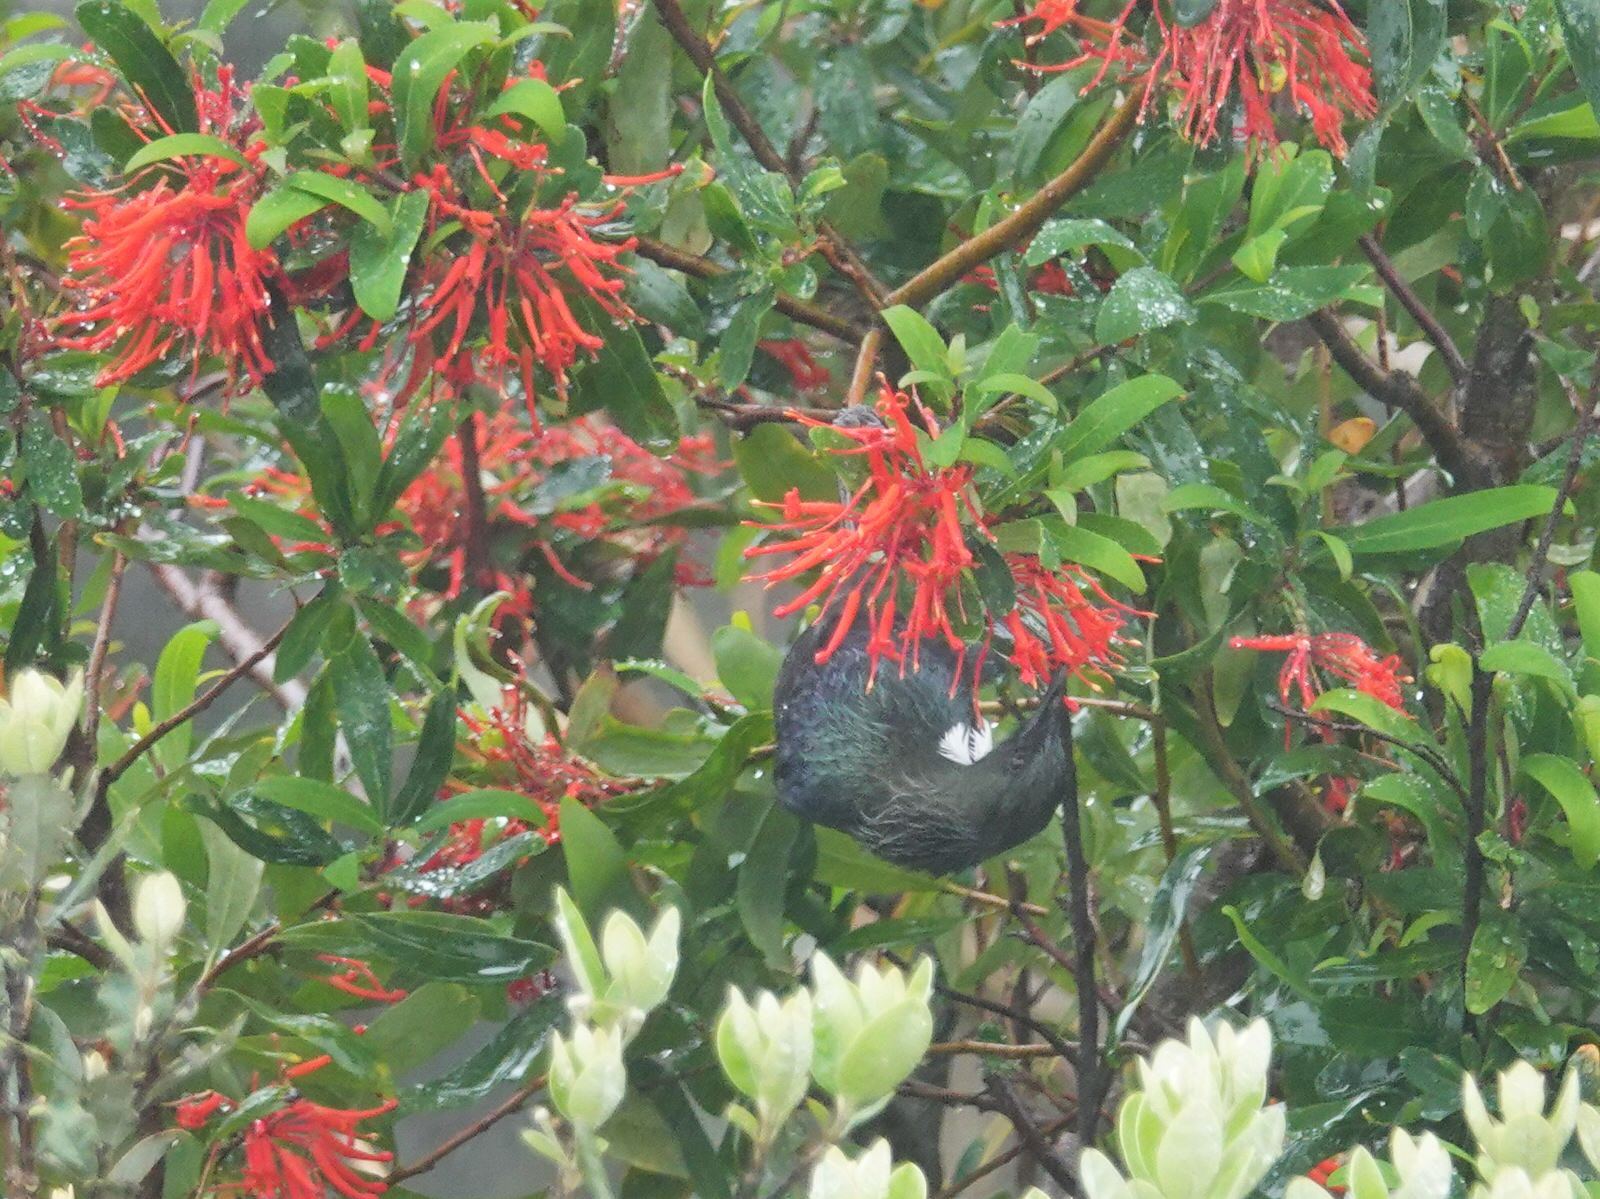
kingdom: Animalia
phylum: Chordata
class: Aves
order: Passeriformes
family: Meliphagidae
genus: Prosthemadera
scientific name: Prosthemadera novaeseelandiae
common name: Tui
